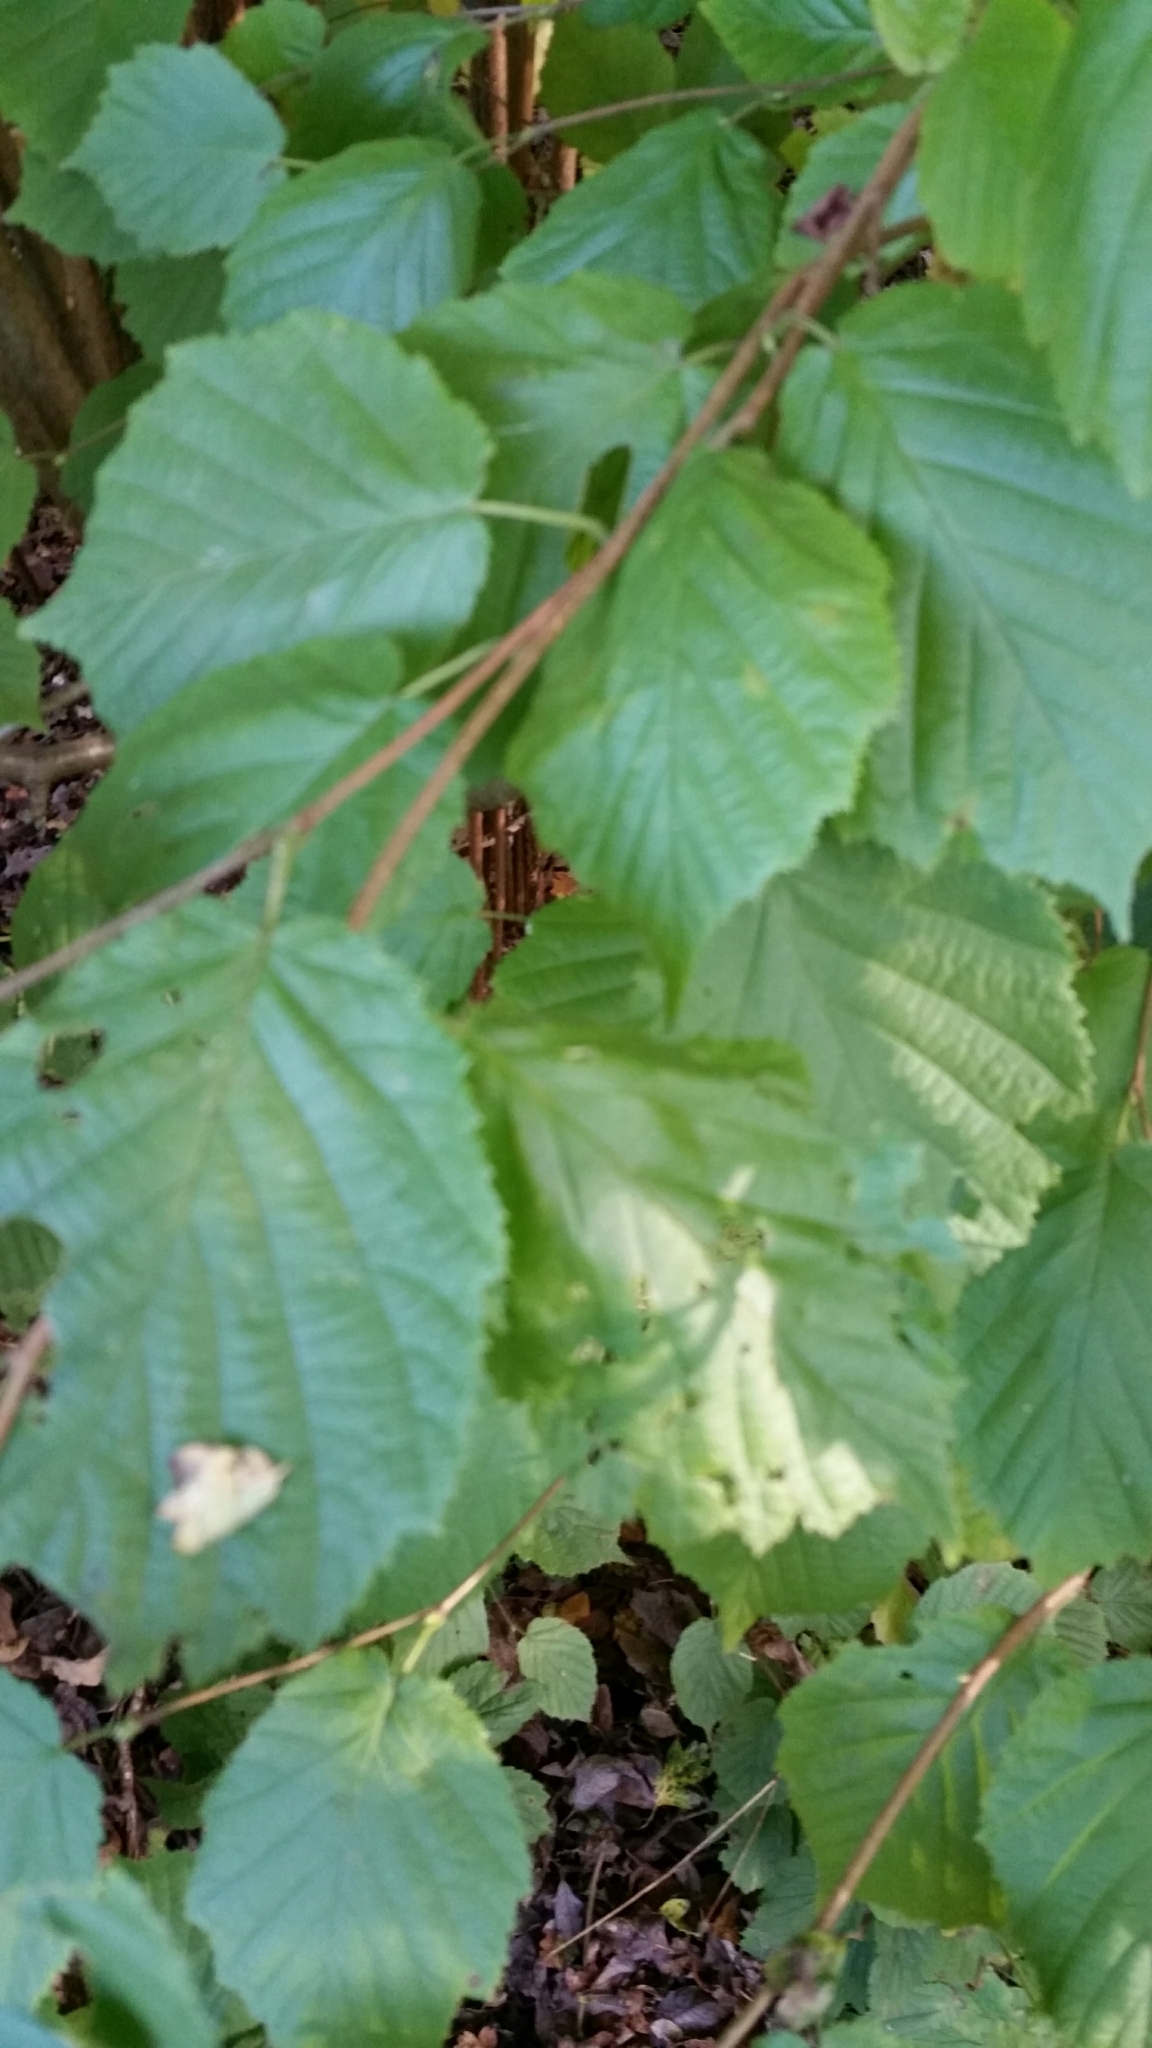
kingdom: Plantae
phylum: Tracheophyta
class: Magnoliopsida
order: Fagales
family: Betulaceae
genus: Corylus
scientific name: Corylus avellana
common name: European hazel
